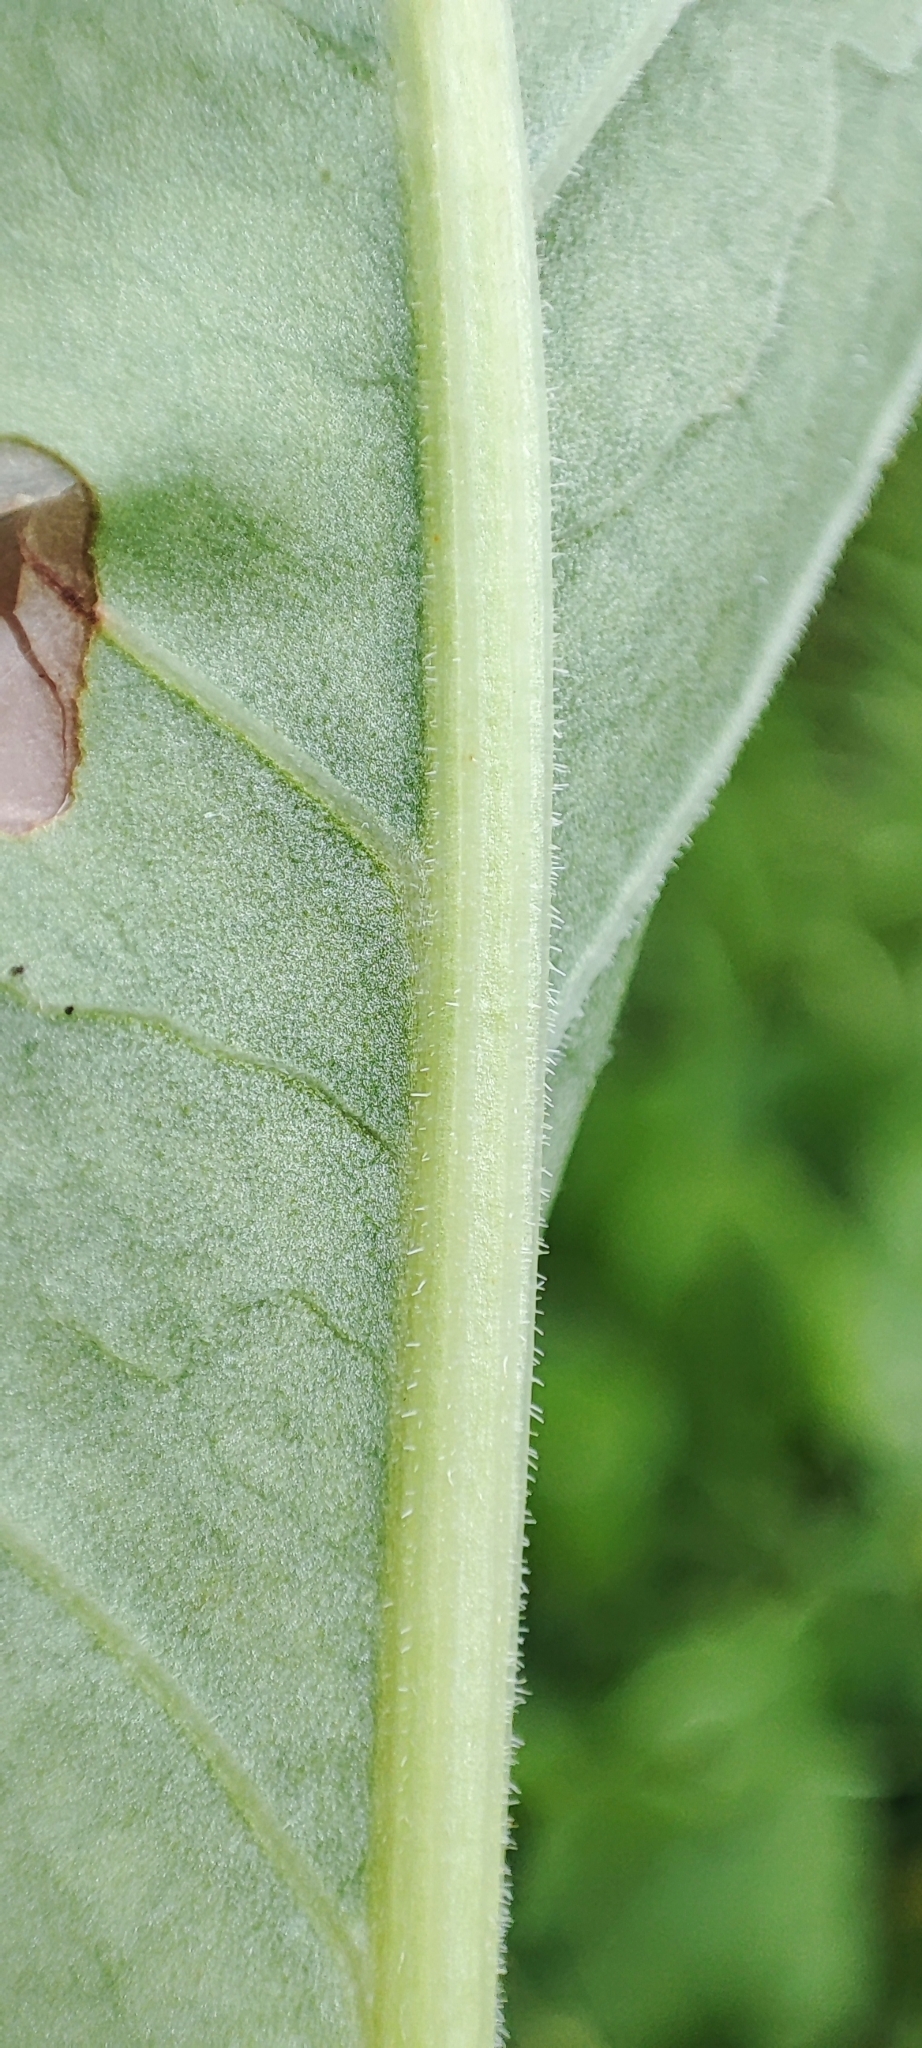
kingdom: Plantae
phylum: Tracheophyta
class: Magnoliopsida
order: Caryophyllales
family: Polygonaceae
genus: Rumex
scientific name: Rumex confertus
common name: Russian dock
